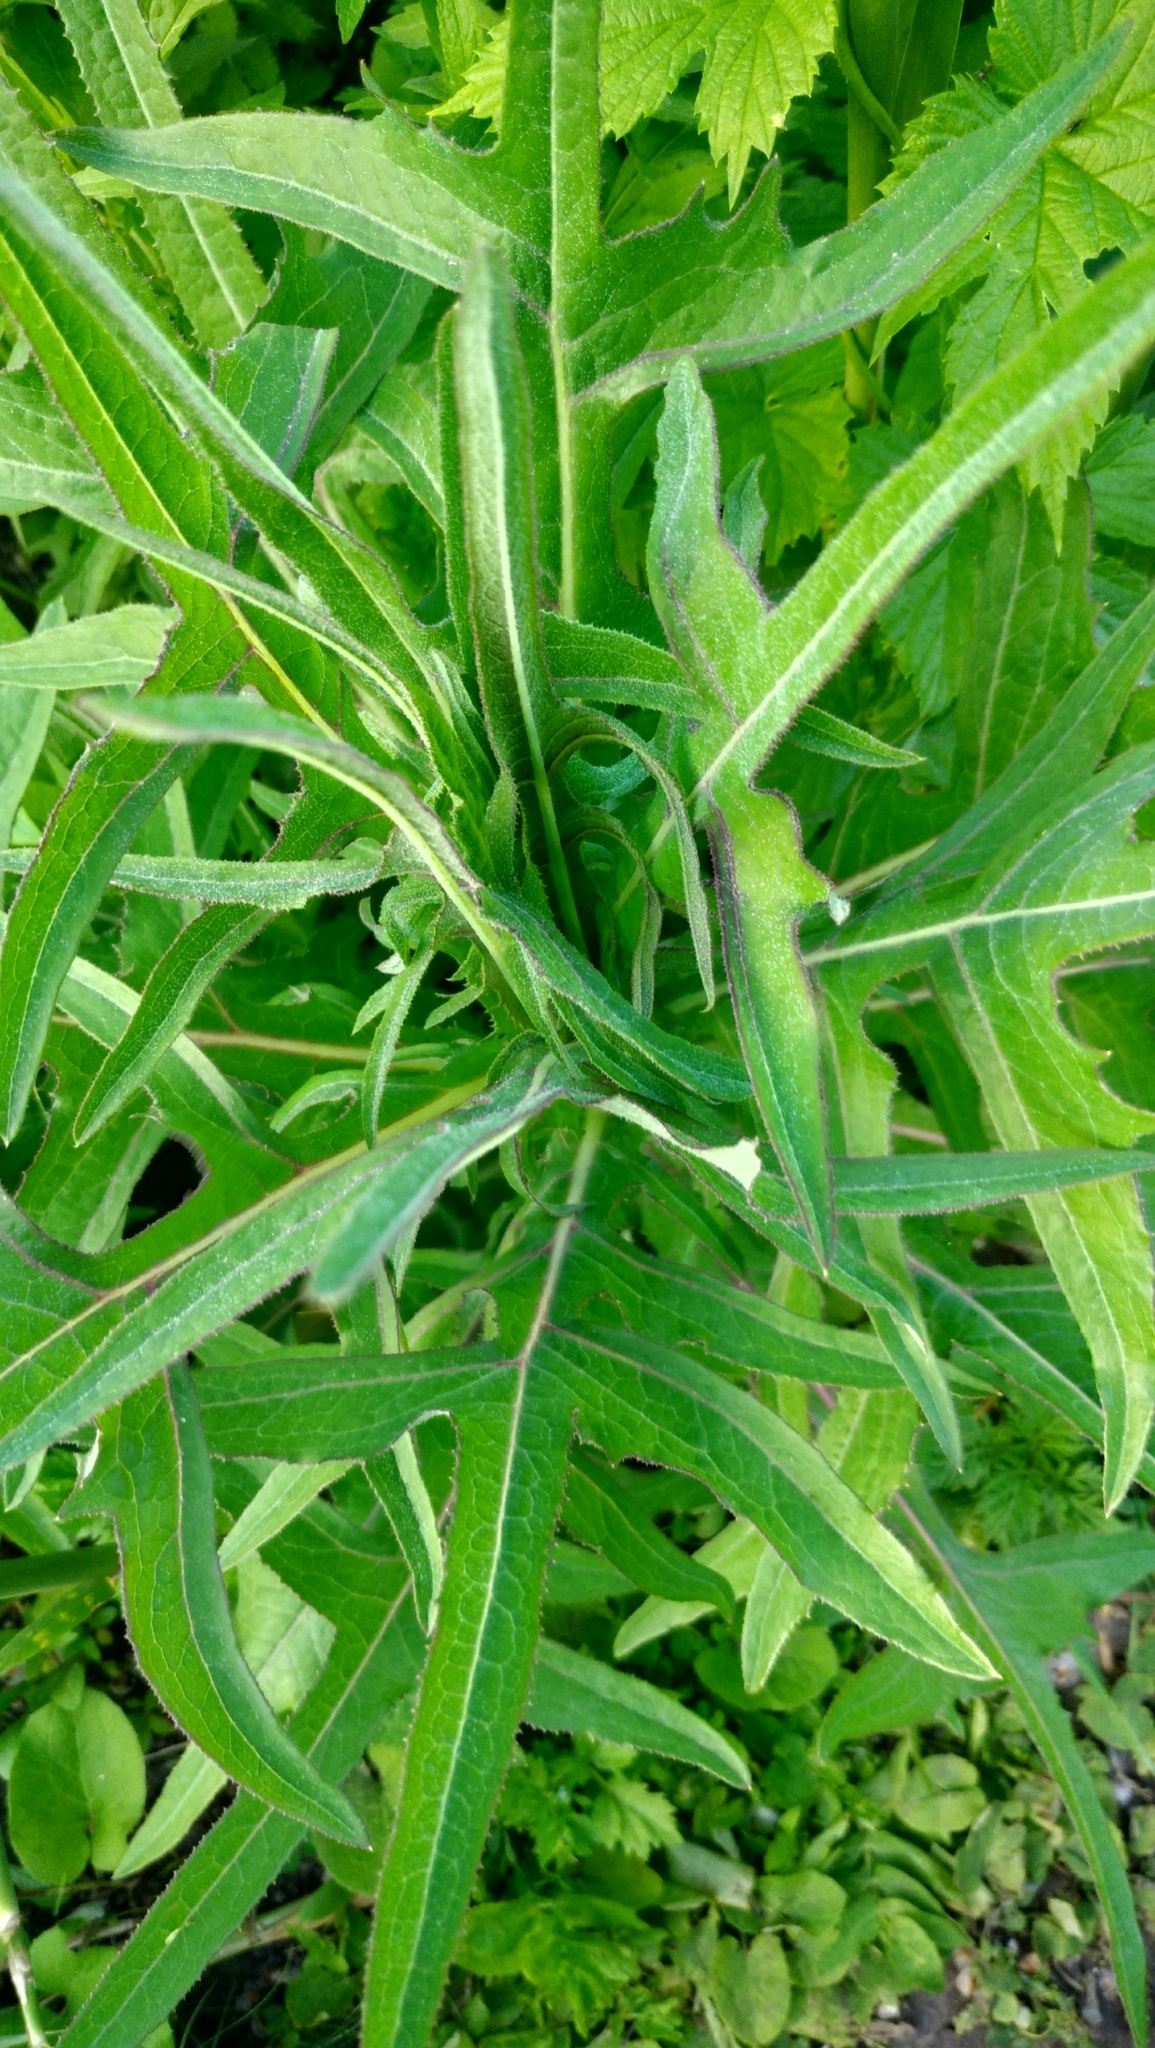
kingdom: Plantae
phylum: Tracheophyta
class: Magnoliopsida
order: Asterales
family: Asteraceae
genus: Sonchus
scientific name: Sonchus palustris
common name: Marsh sow-thistle
